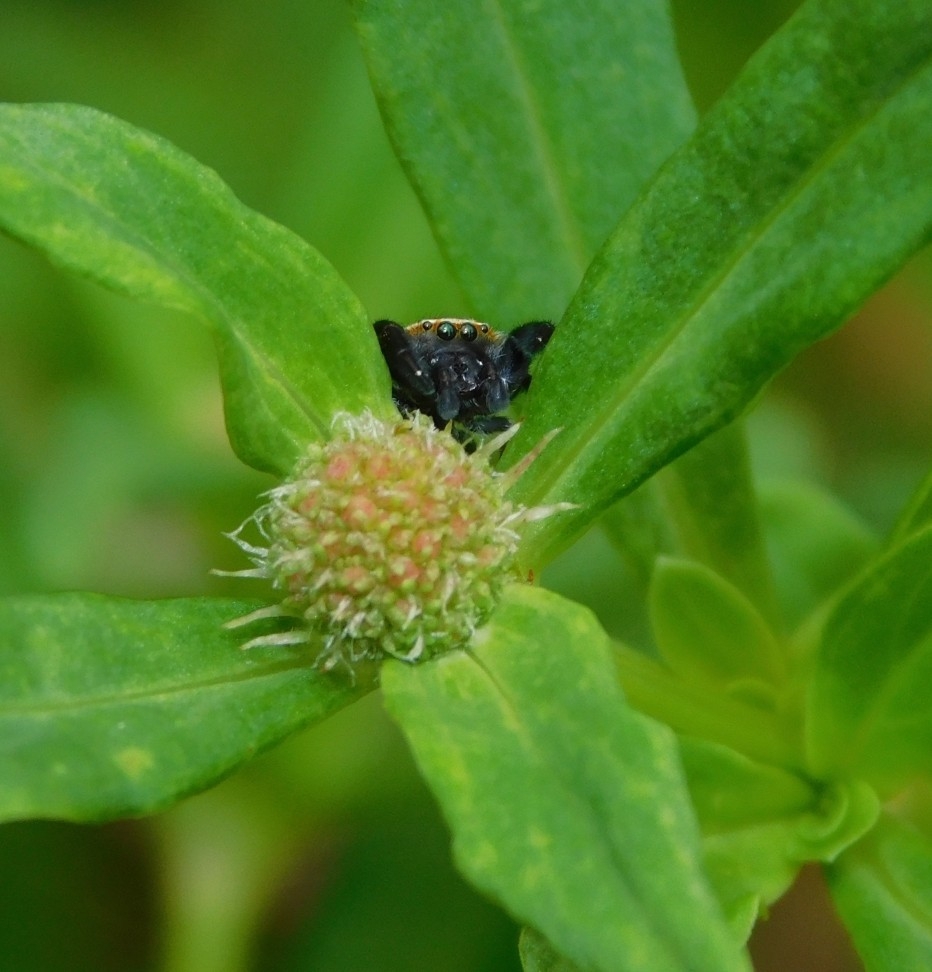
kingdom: Animalia
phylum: Arthropoda
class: Arachnida
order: Araneae
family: Salticidae
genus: Rhene
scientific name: Rhene flavigera
